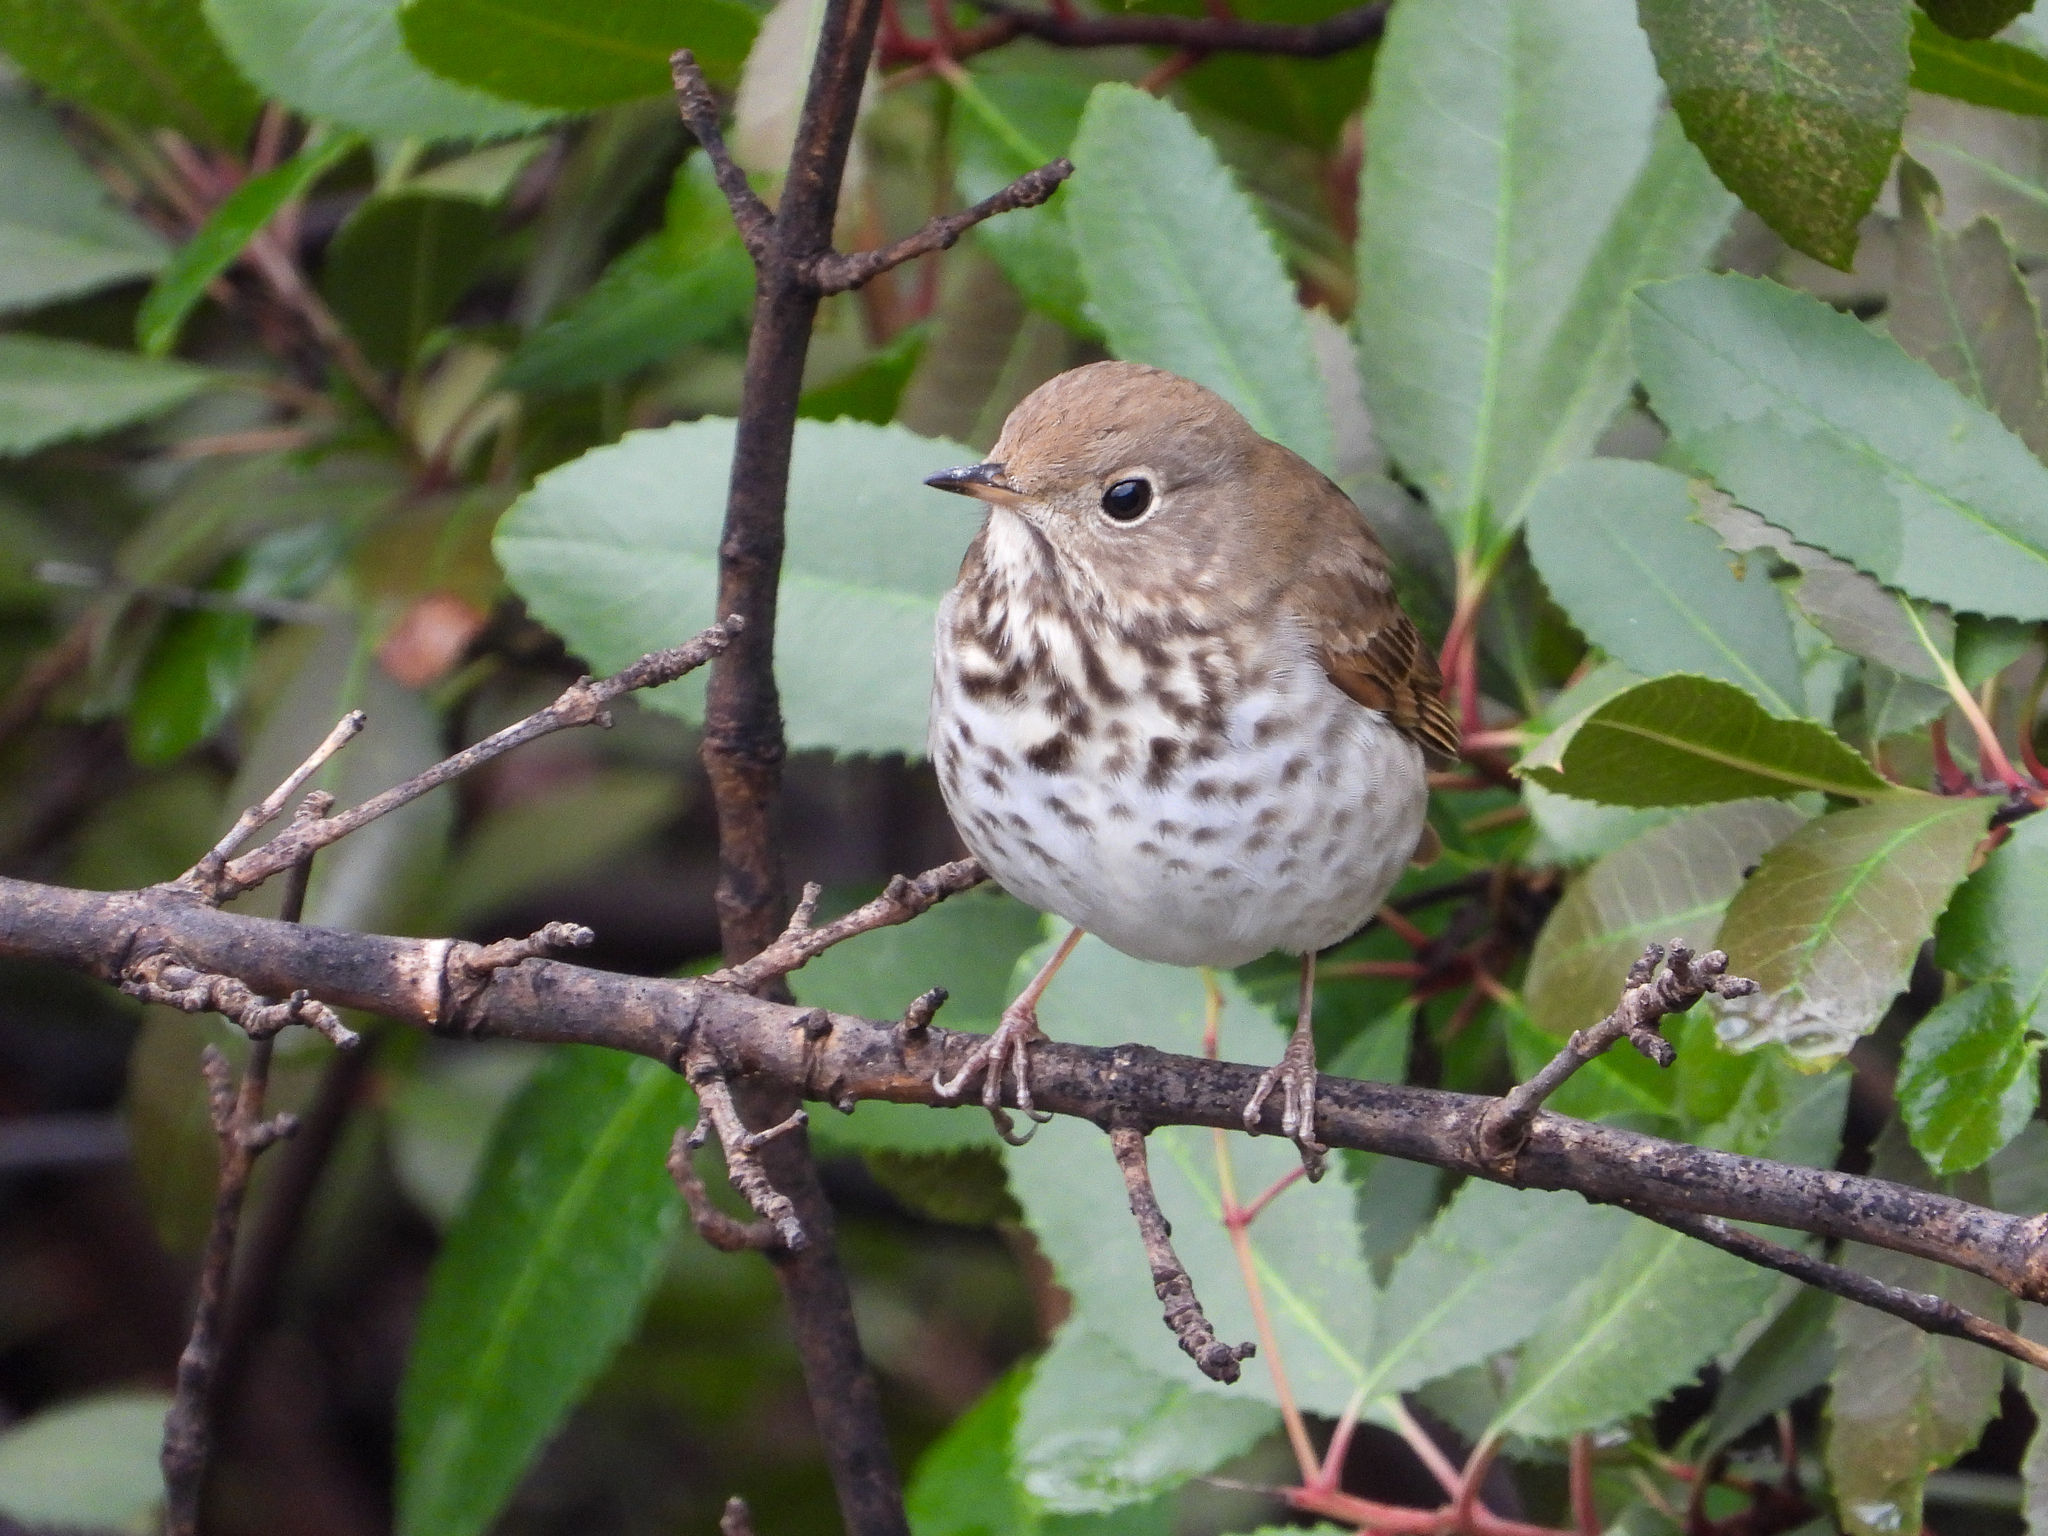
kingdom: Animalia
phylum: Chordata
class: Aves
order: Passeriformes
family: Turdidae
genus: Catharus
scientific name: Catharus guttatus
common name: Hermit thrush
